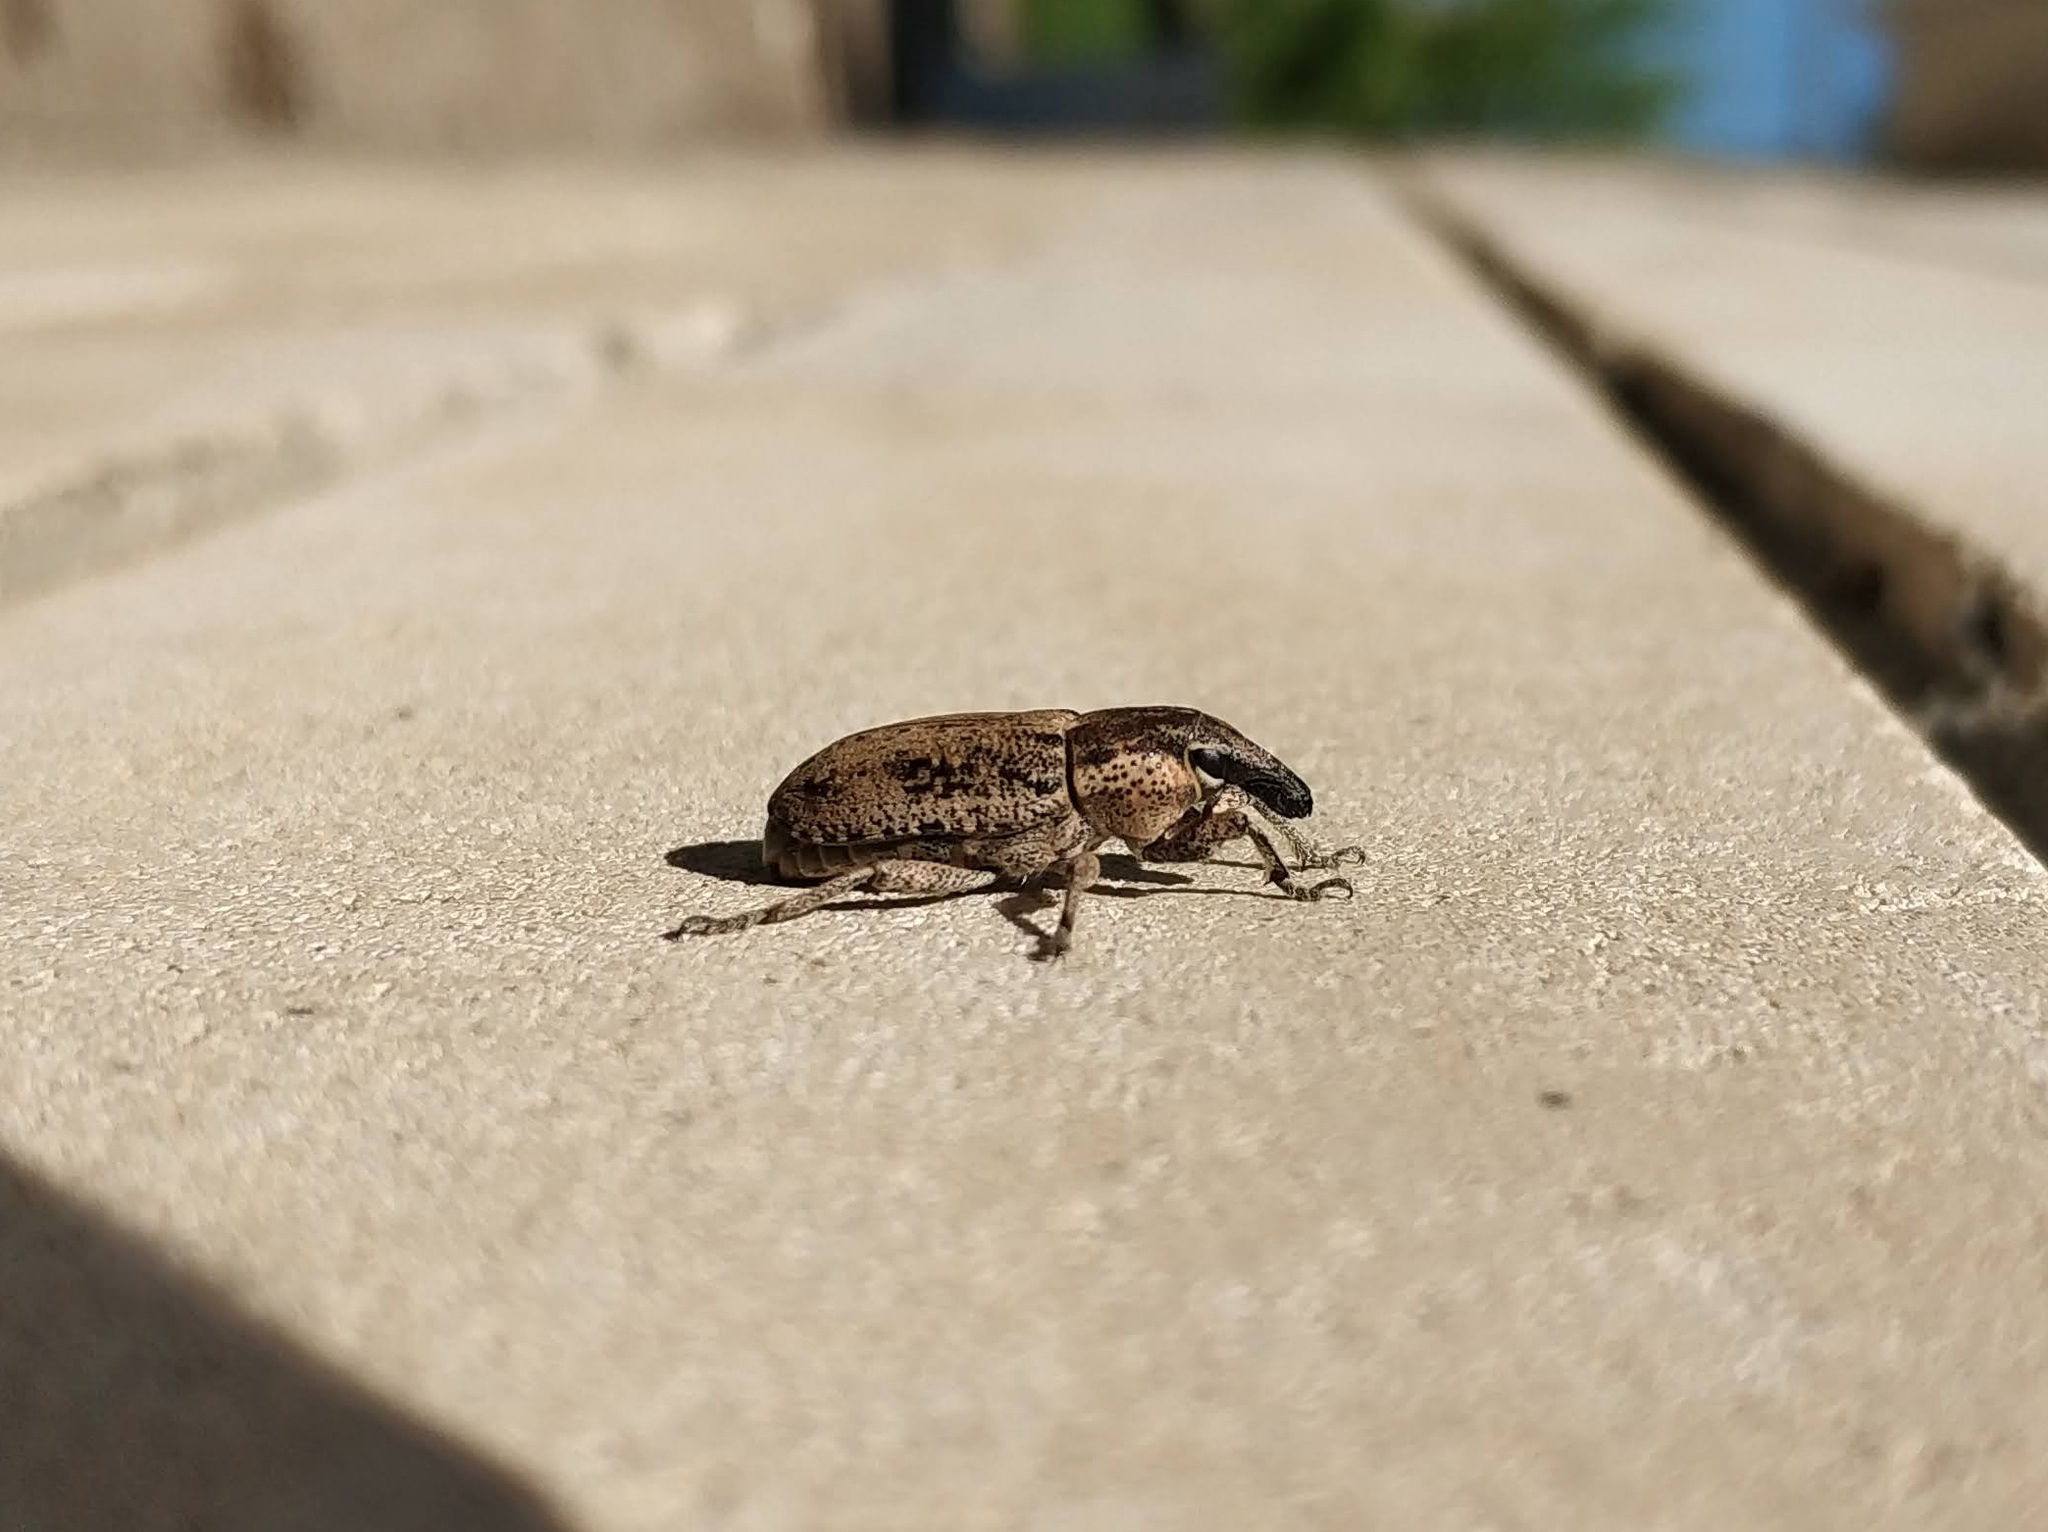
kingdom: Animalia
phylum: Arthropoda
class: Insecta
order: Coleoptera
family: Curculionidae
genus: Maximus
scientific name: Maximus strabus
